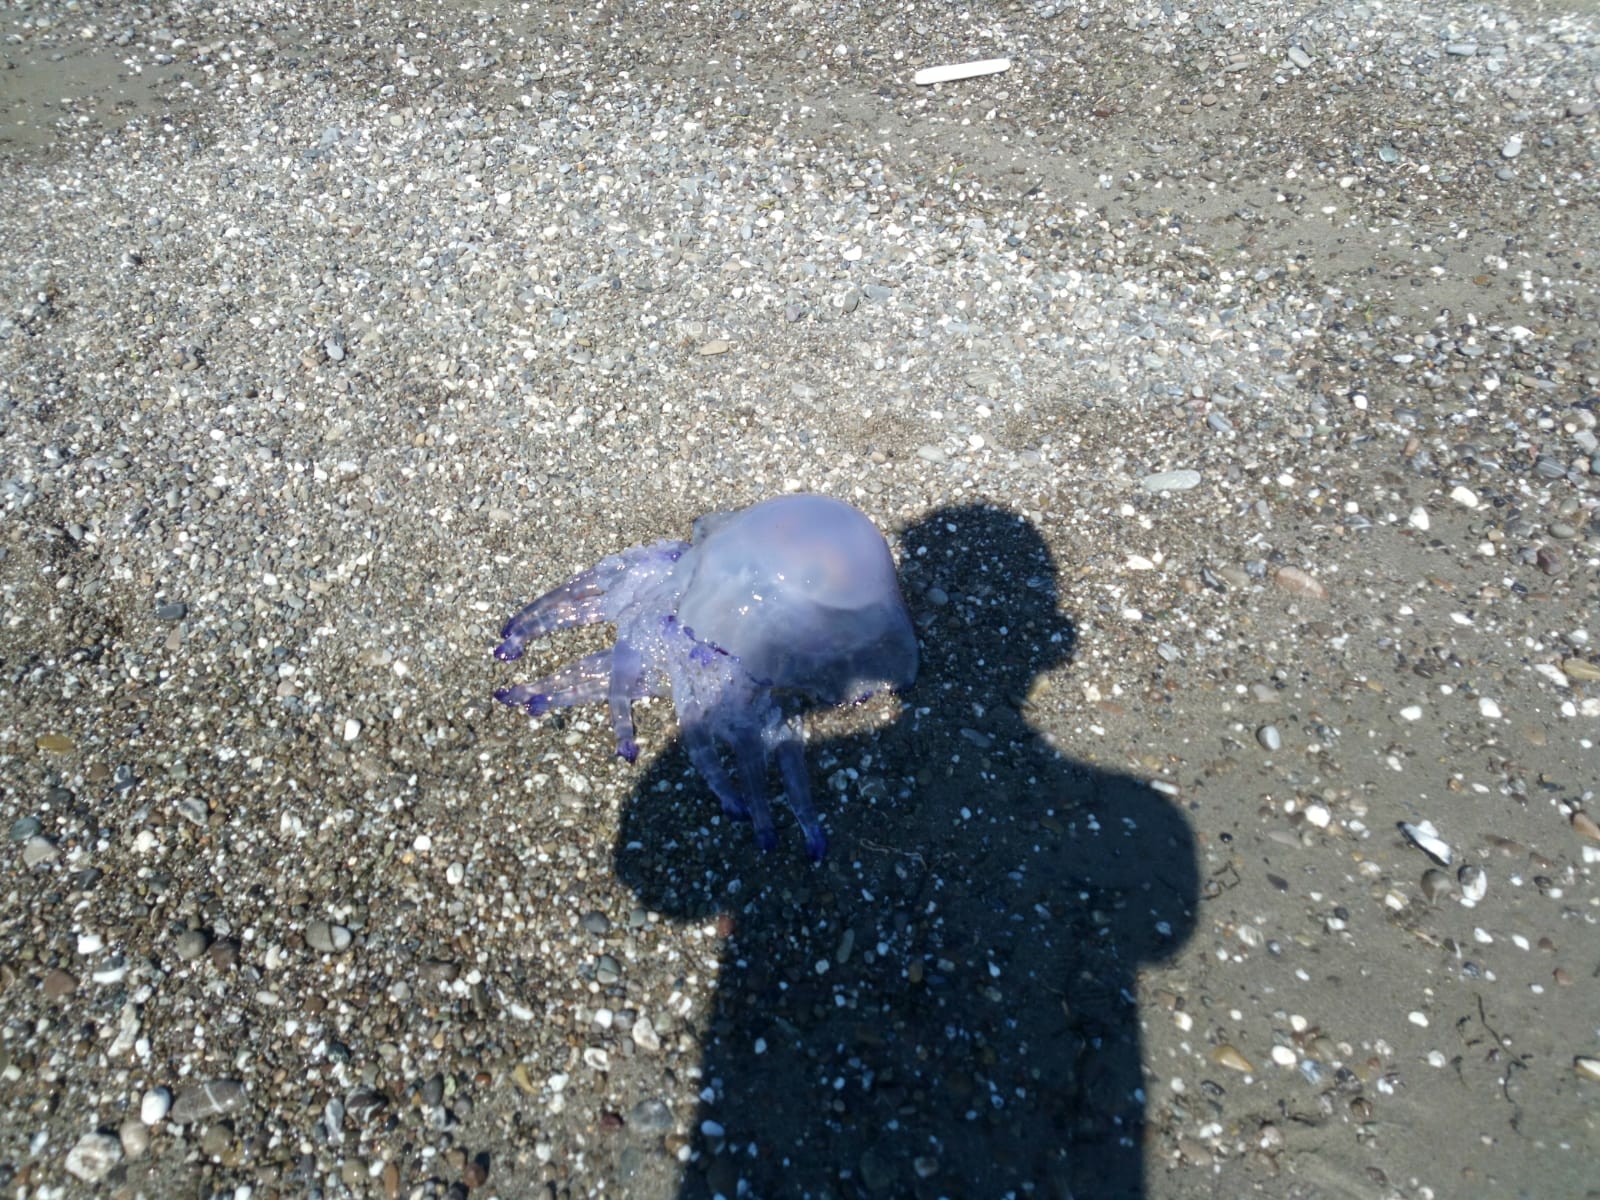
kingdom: Animalia
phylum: Cnidaria
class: Scyphozoa
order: Rhizostomeae
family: Rhizostomatidae
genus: Rhizostoma
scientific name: Rhizostoma pulmo
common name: Barrel jellyfish
